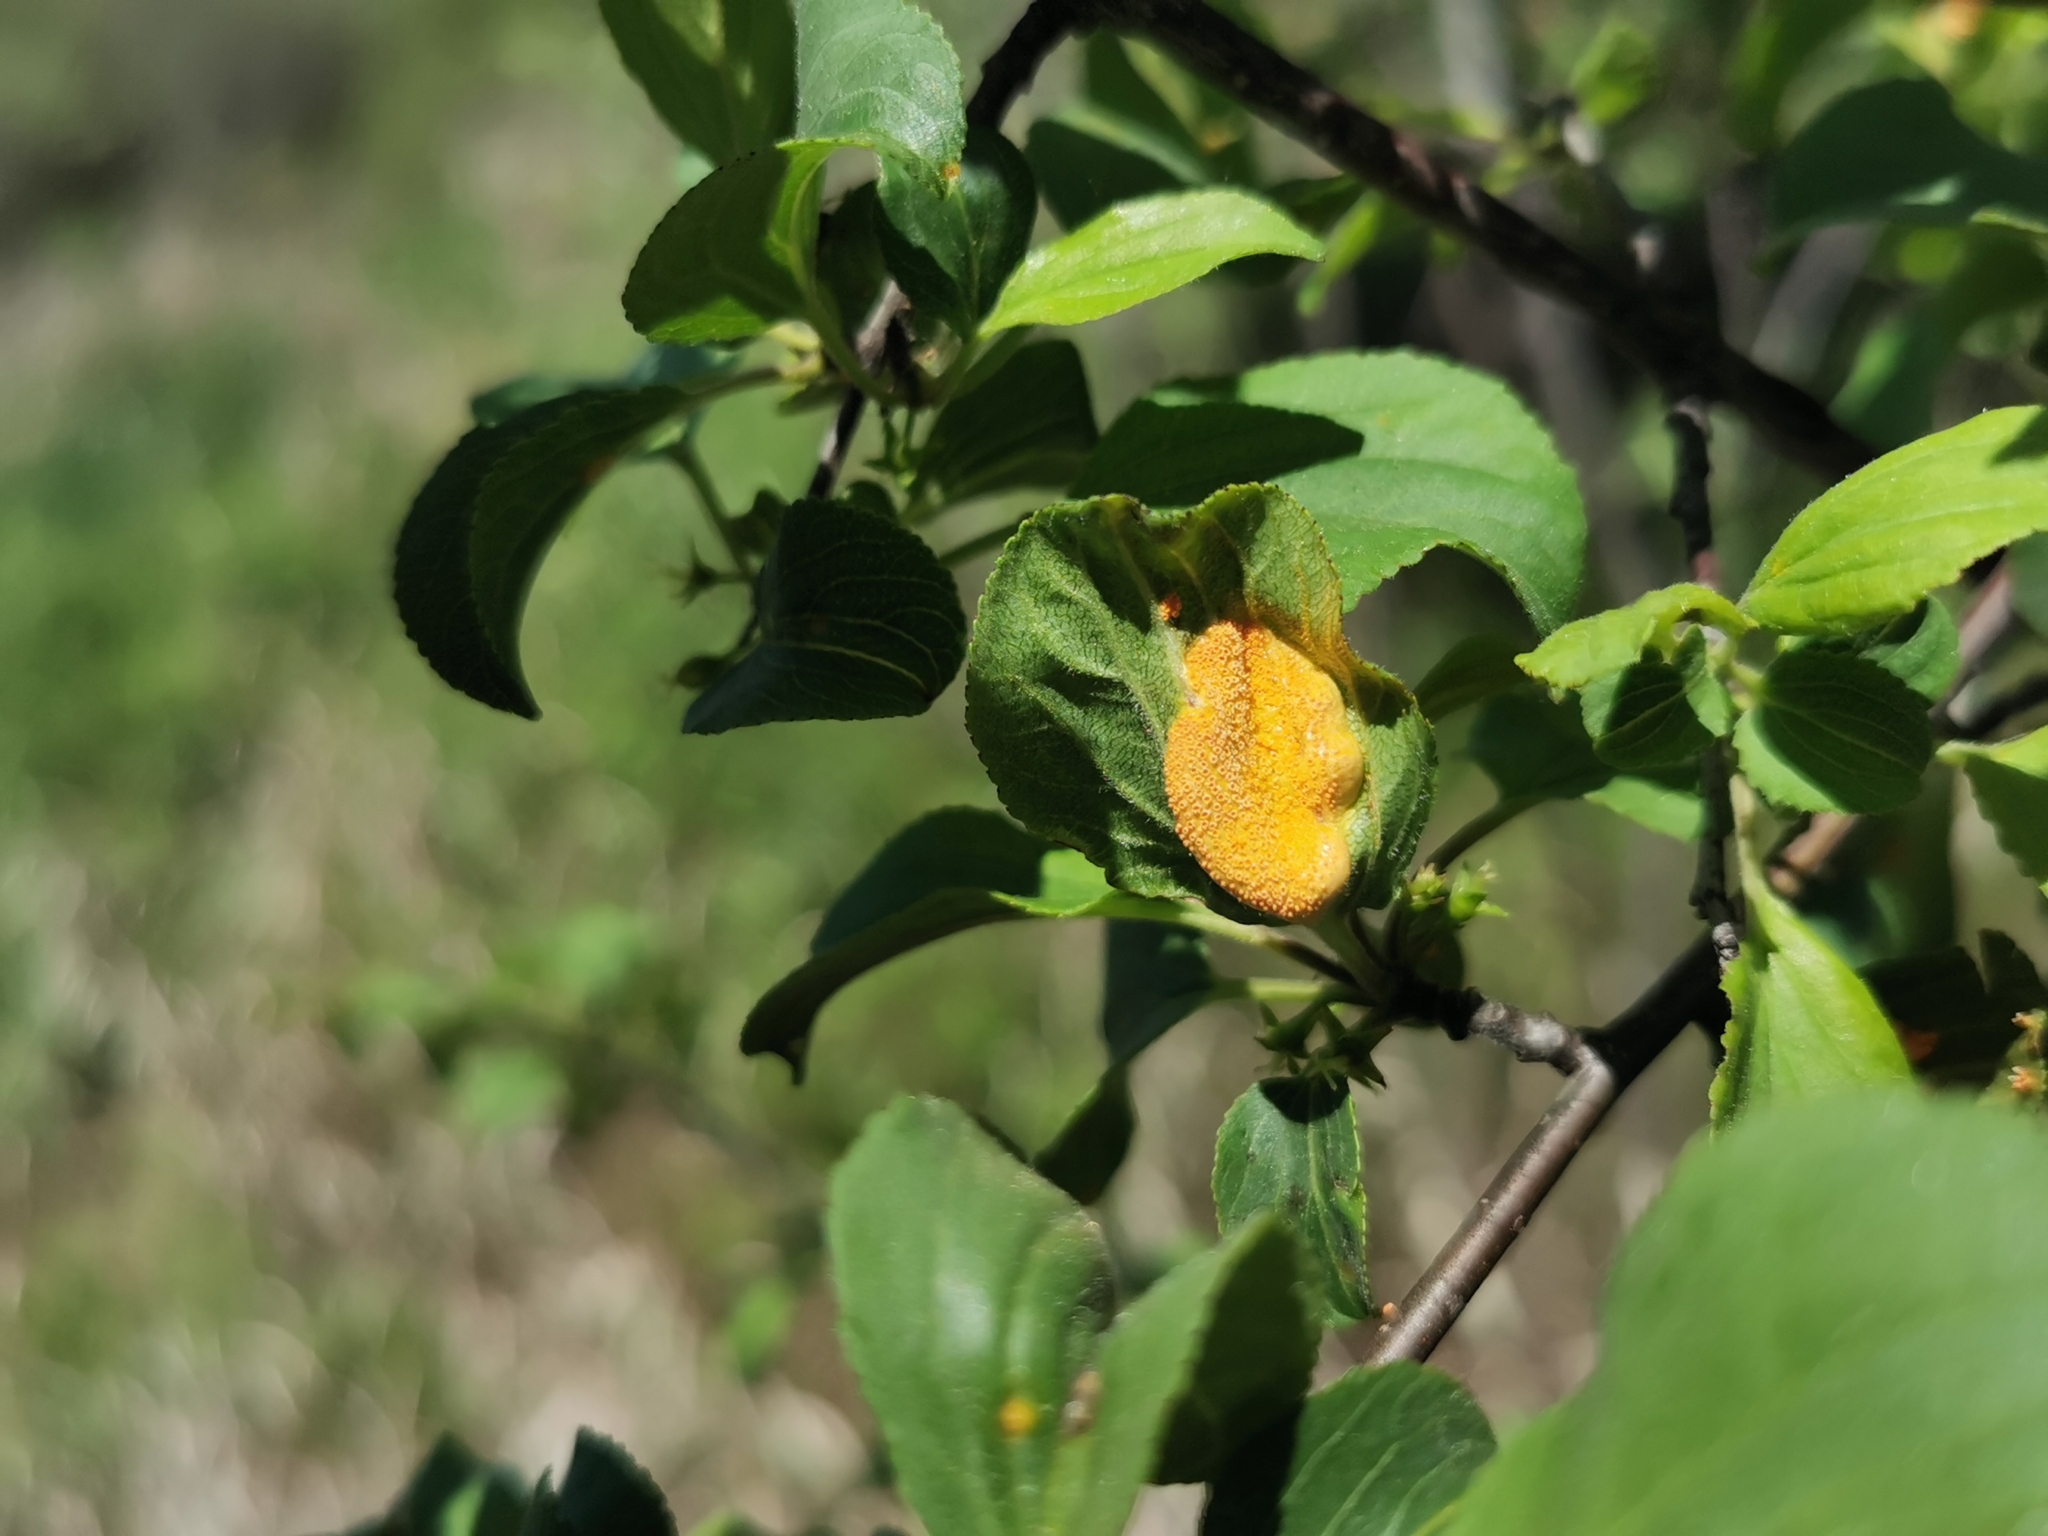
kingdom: Fungi
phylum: Basidiomycota
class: Pucciniomycetes
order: Pucciniales
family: Pucciniaceae
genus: Puccinia
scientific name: Puccinia coronata
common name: Crown rust
